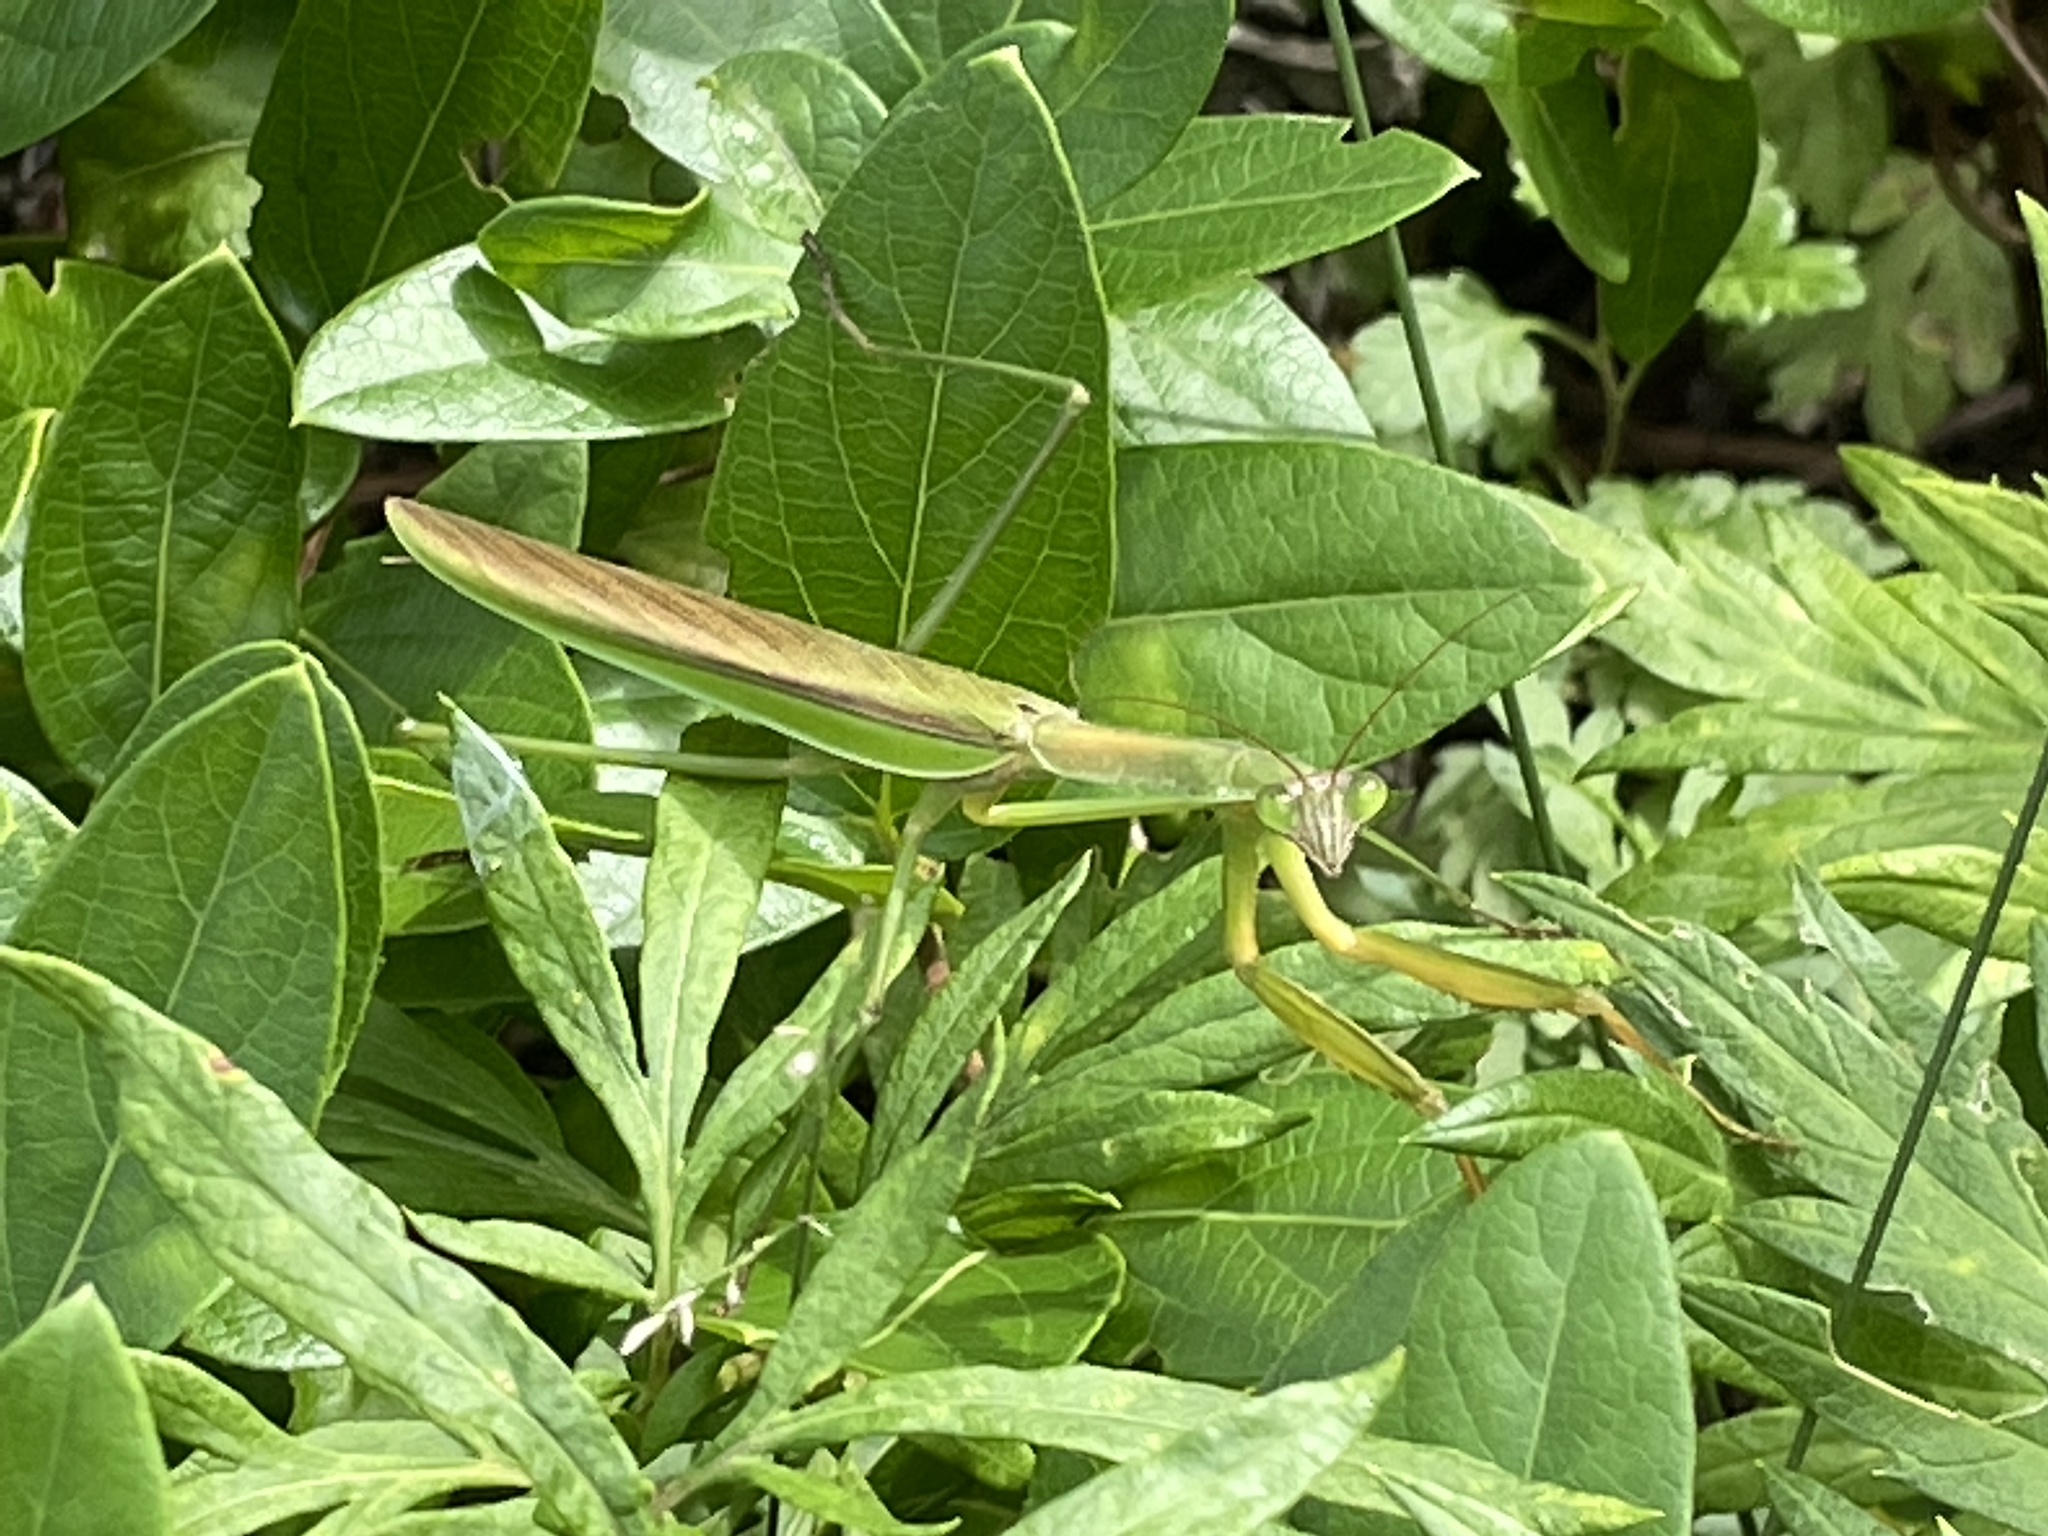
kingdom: Animalia
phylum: Arthropoda
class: Insecta
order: Mantodea
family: Mantidae
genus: Tenodera
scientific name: Tenodera sinensis
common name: Chinese mantis
